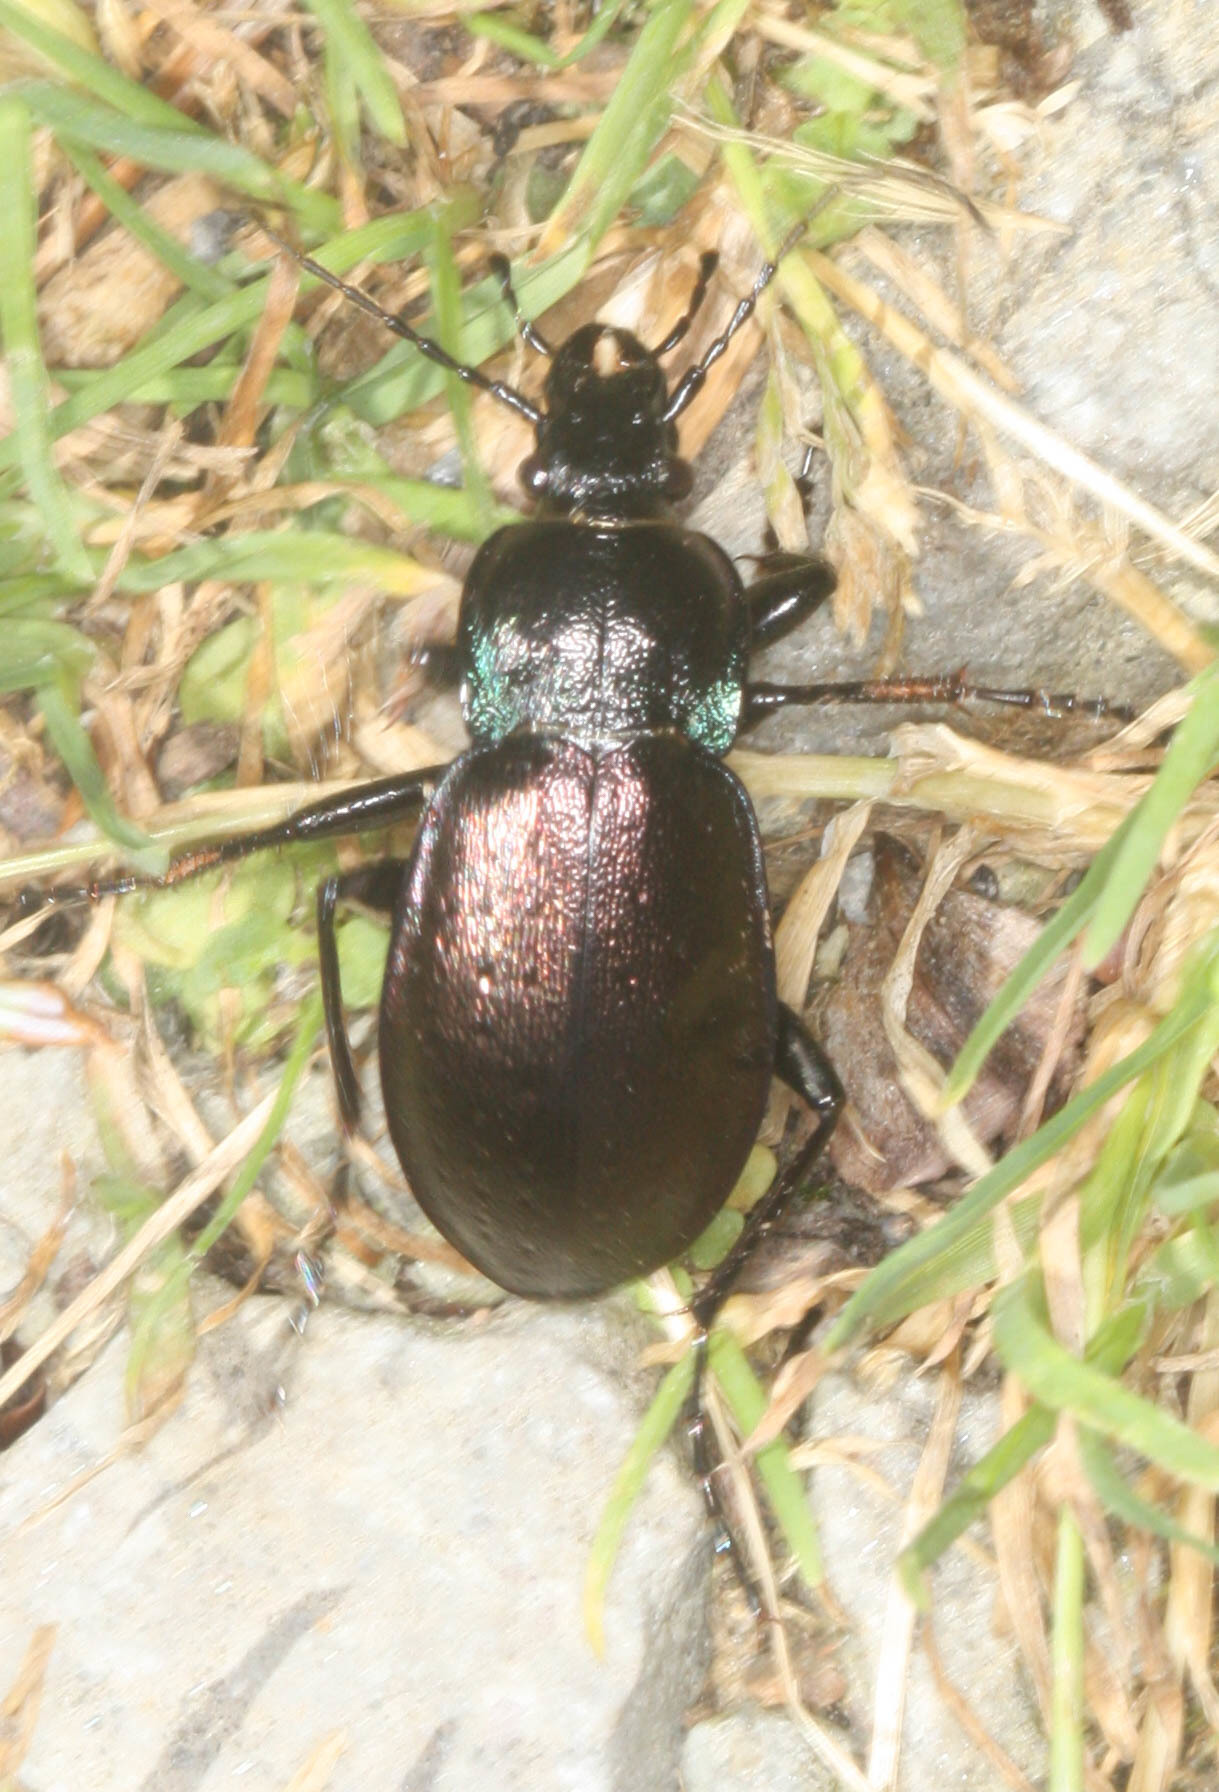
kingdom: Animalia
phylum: Arthropoda
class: Insecta
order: Coleoptera
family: Carabidae
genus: Carabus
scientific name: Carabus nemoralis
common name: European ground beetle
